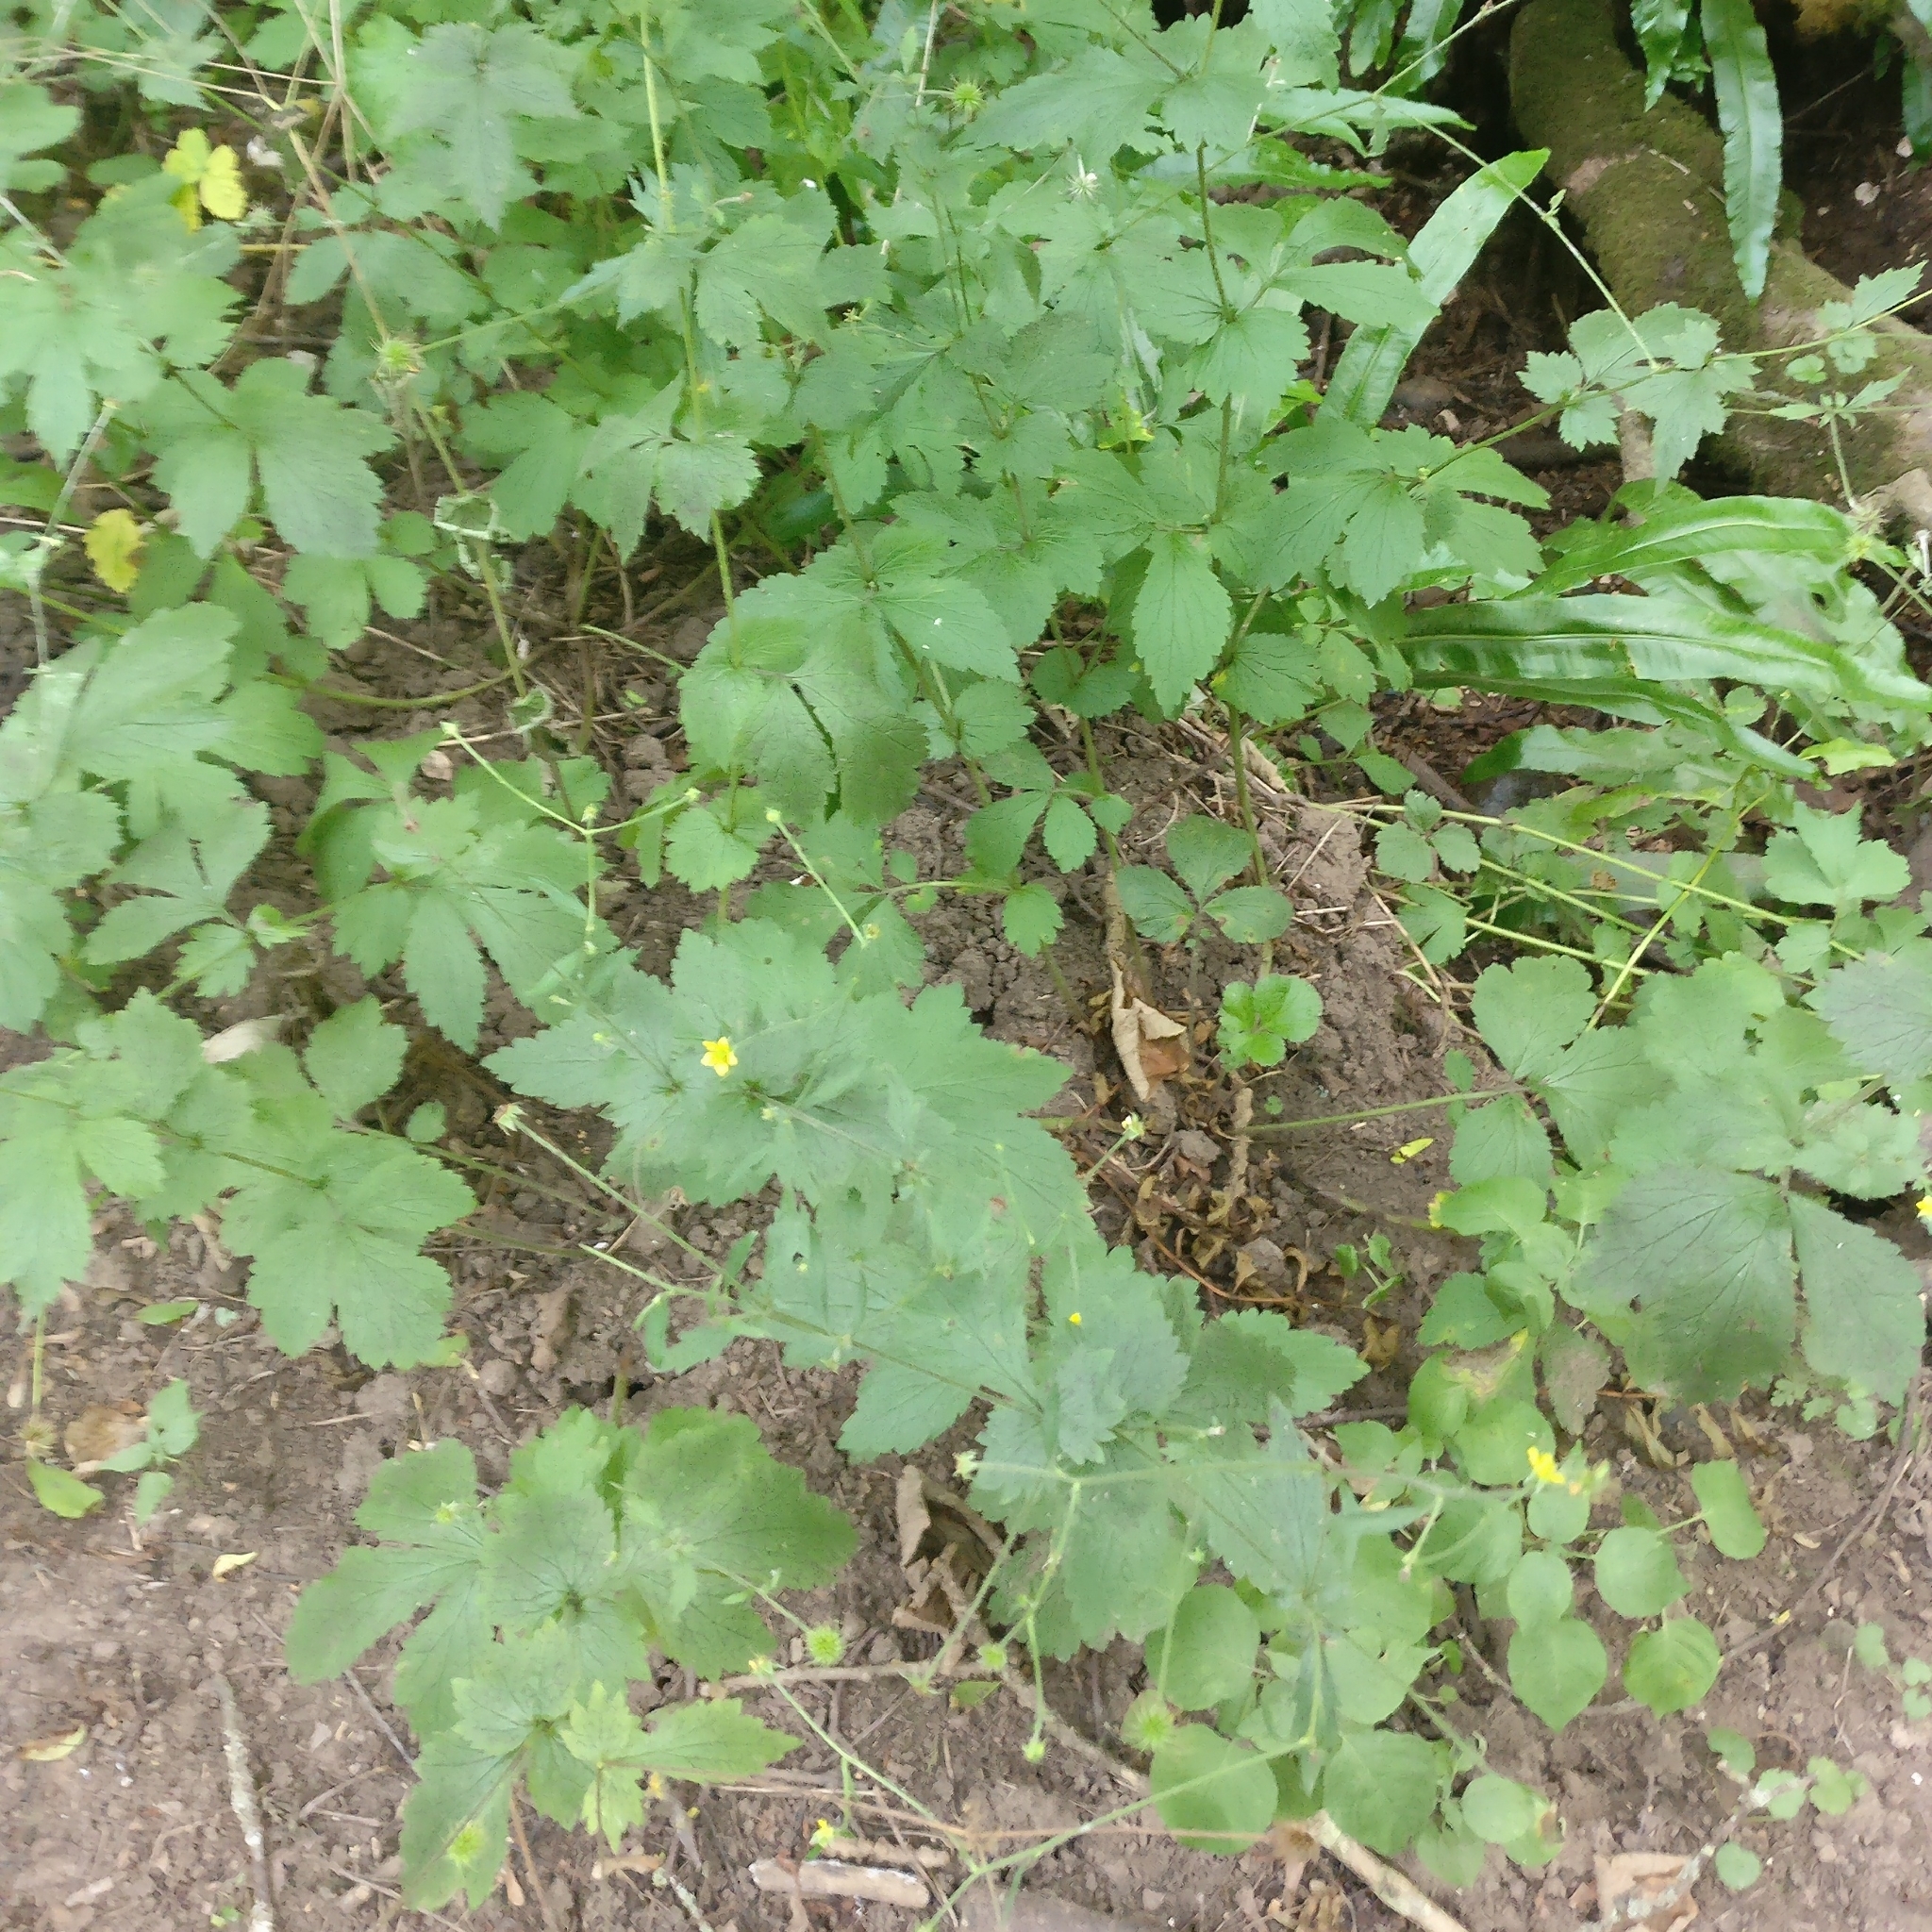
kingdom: Plantae
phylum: Tracheophyta
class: Magnoliopsida
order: Rosales
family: Rosaceae
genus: Geum
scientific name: Geum urbanum
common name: Wood avens
